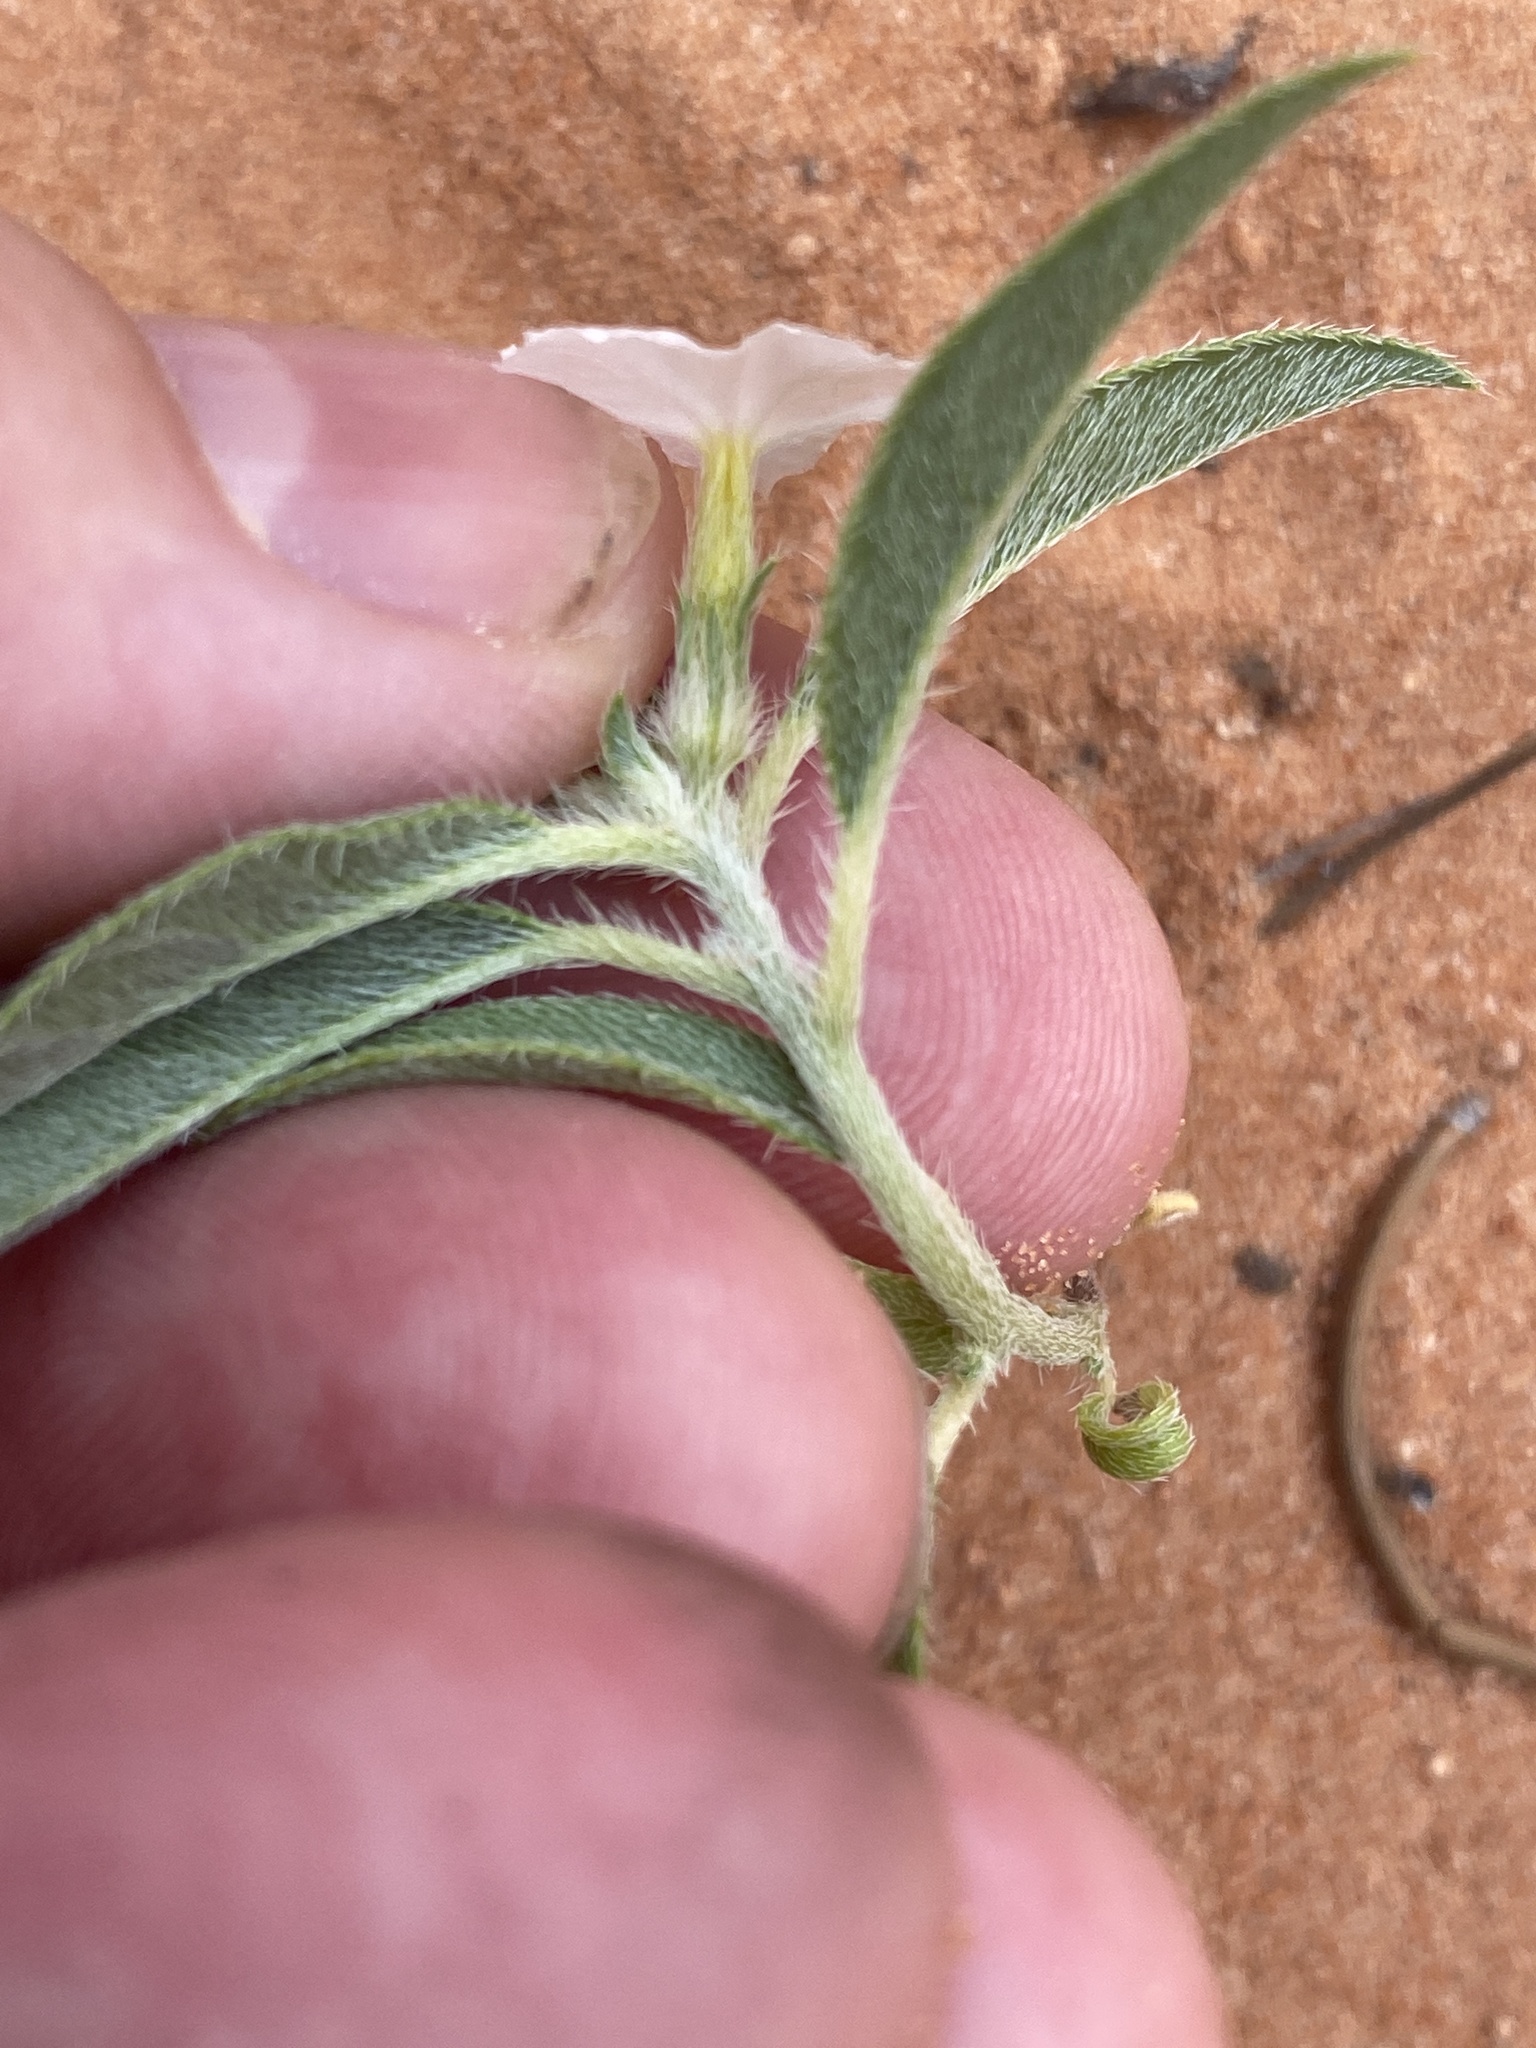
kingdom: Plantae
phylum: Tracheophyta
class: Magnoliopsida
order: Boraginales
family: Heliotropiaceae
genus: Euploca
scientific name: Euploca convolvulacea
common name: Bindweed heliotrope
